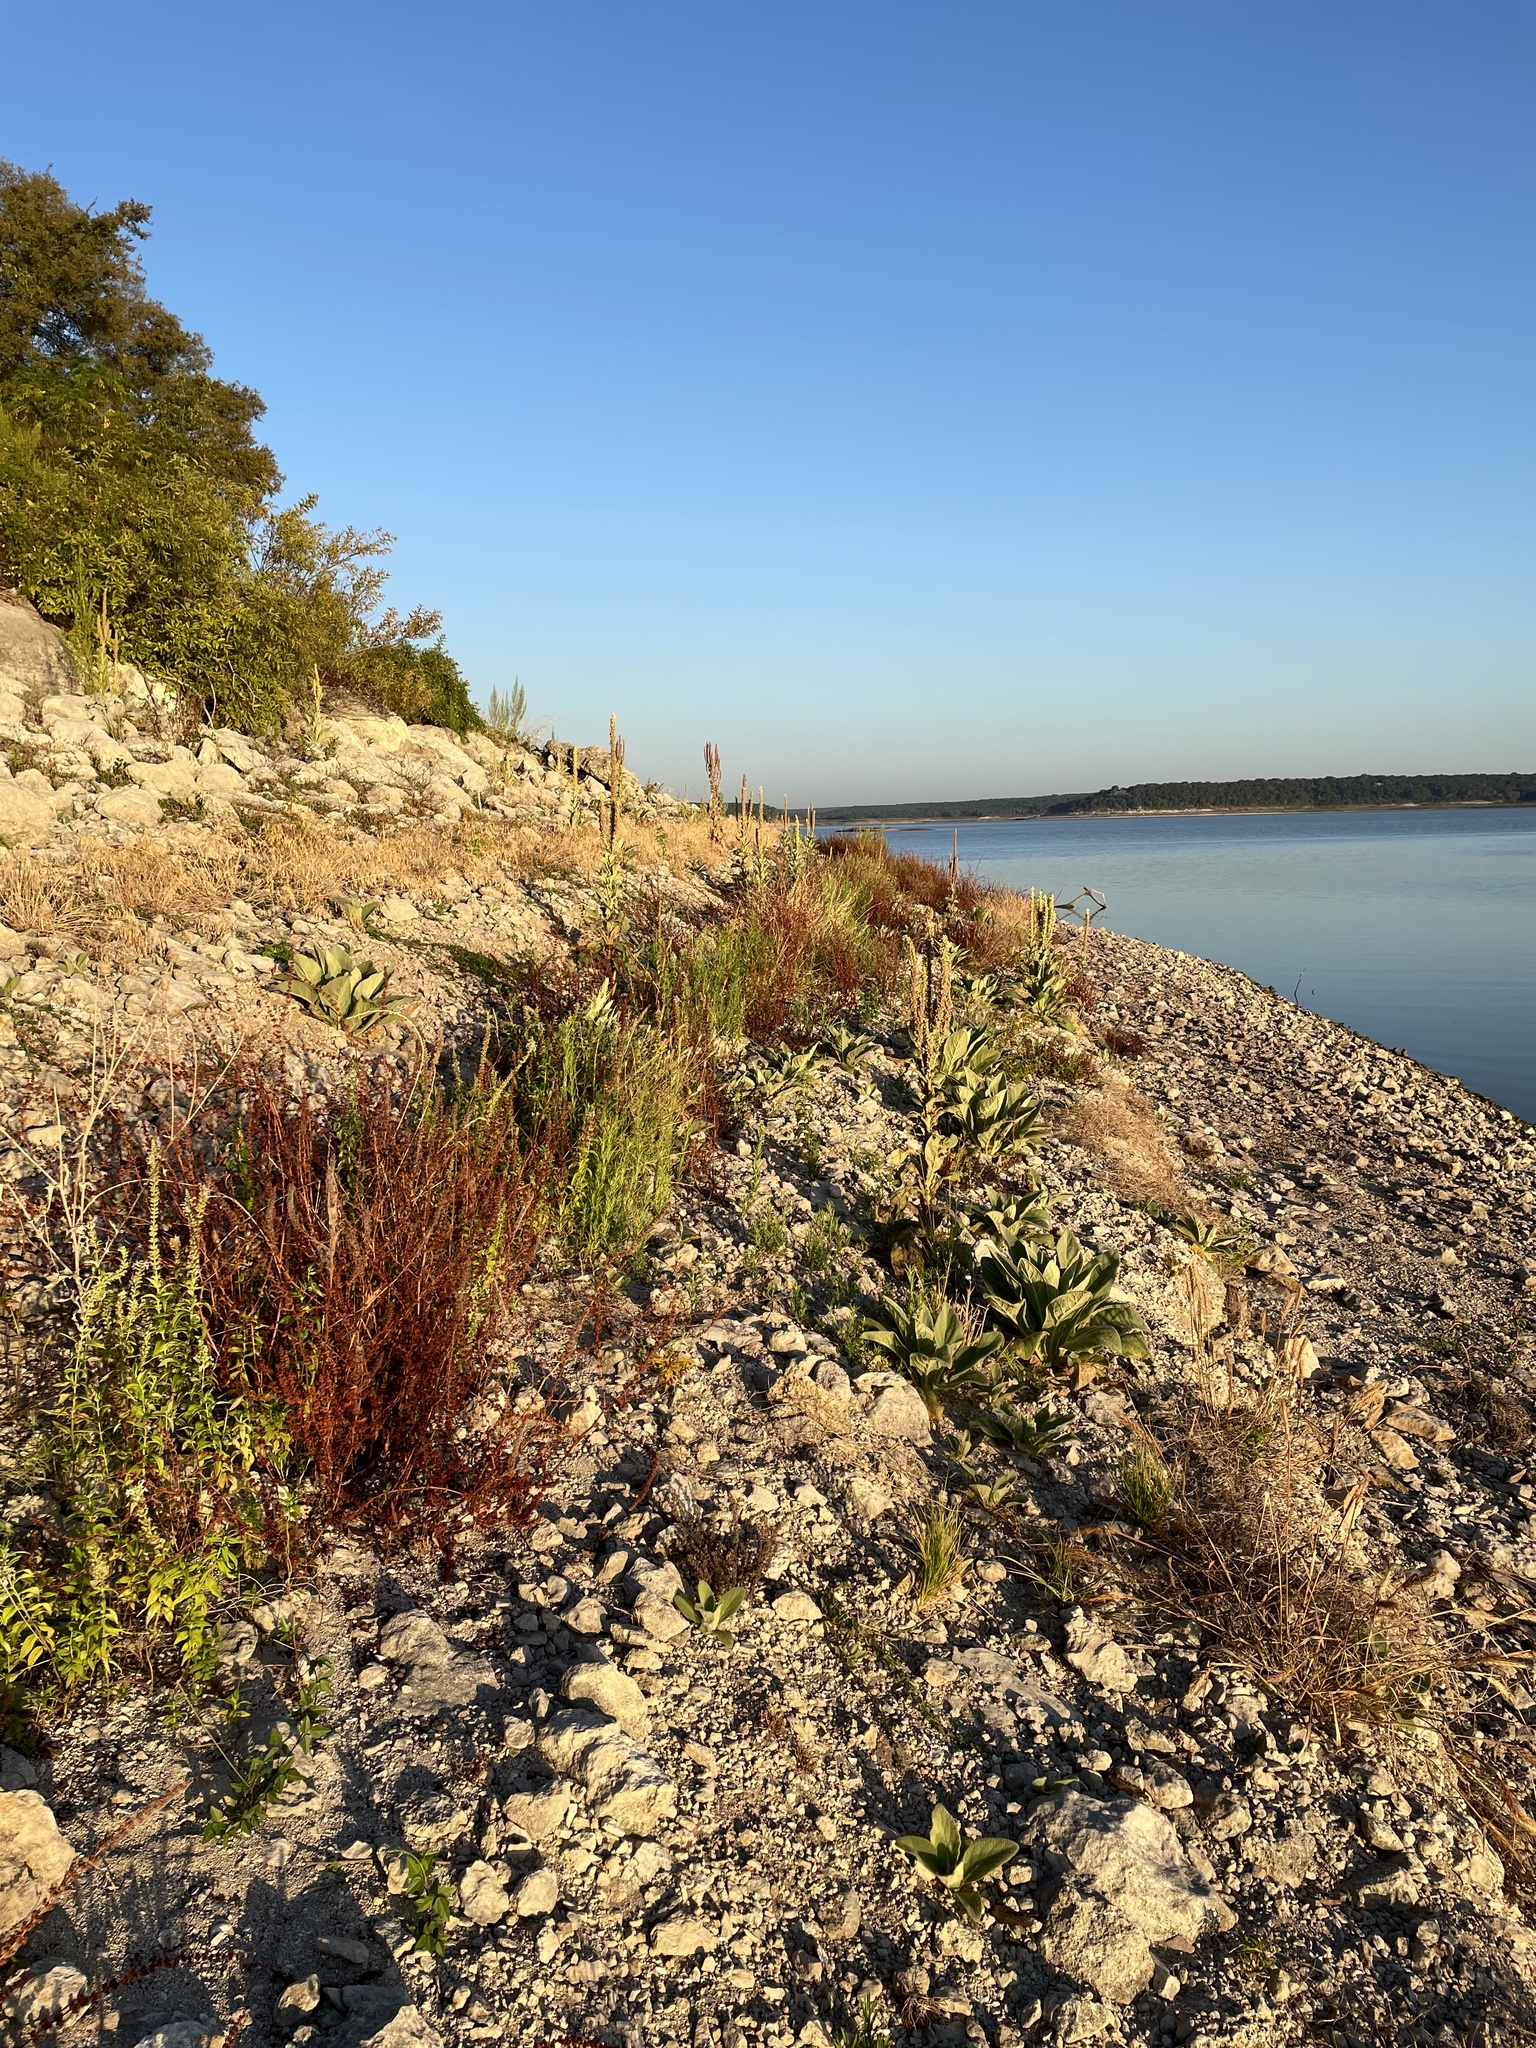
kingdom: Plantae
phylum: Tracheophyta
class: Magnoliopsida
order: Lamiales
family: Scrophulariaceae
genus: Verbascum
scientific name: Verbascum thapsus
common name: Common mullein
